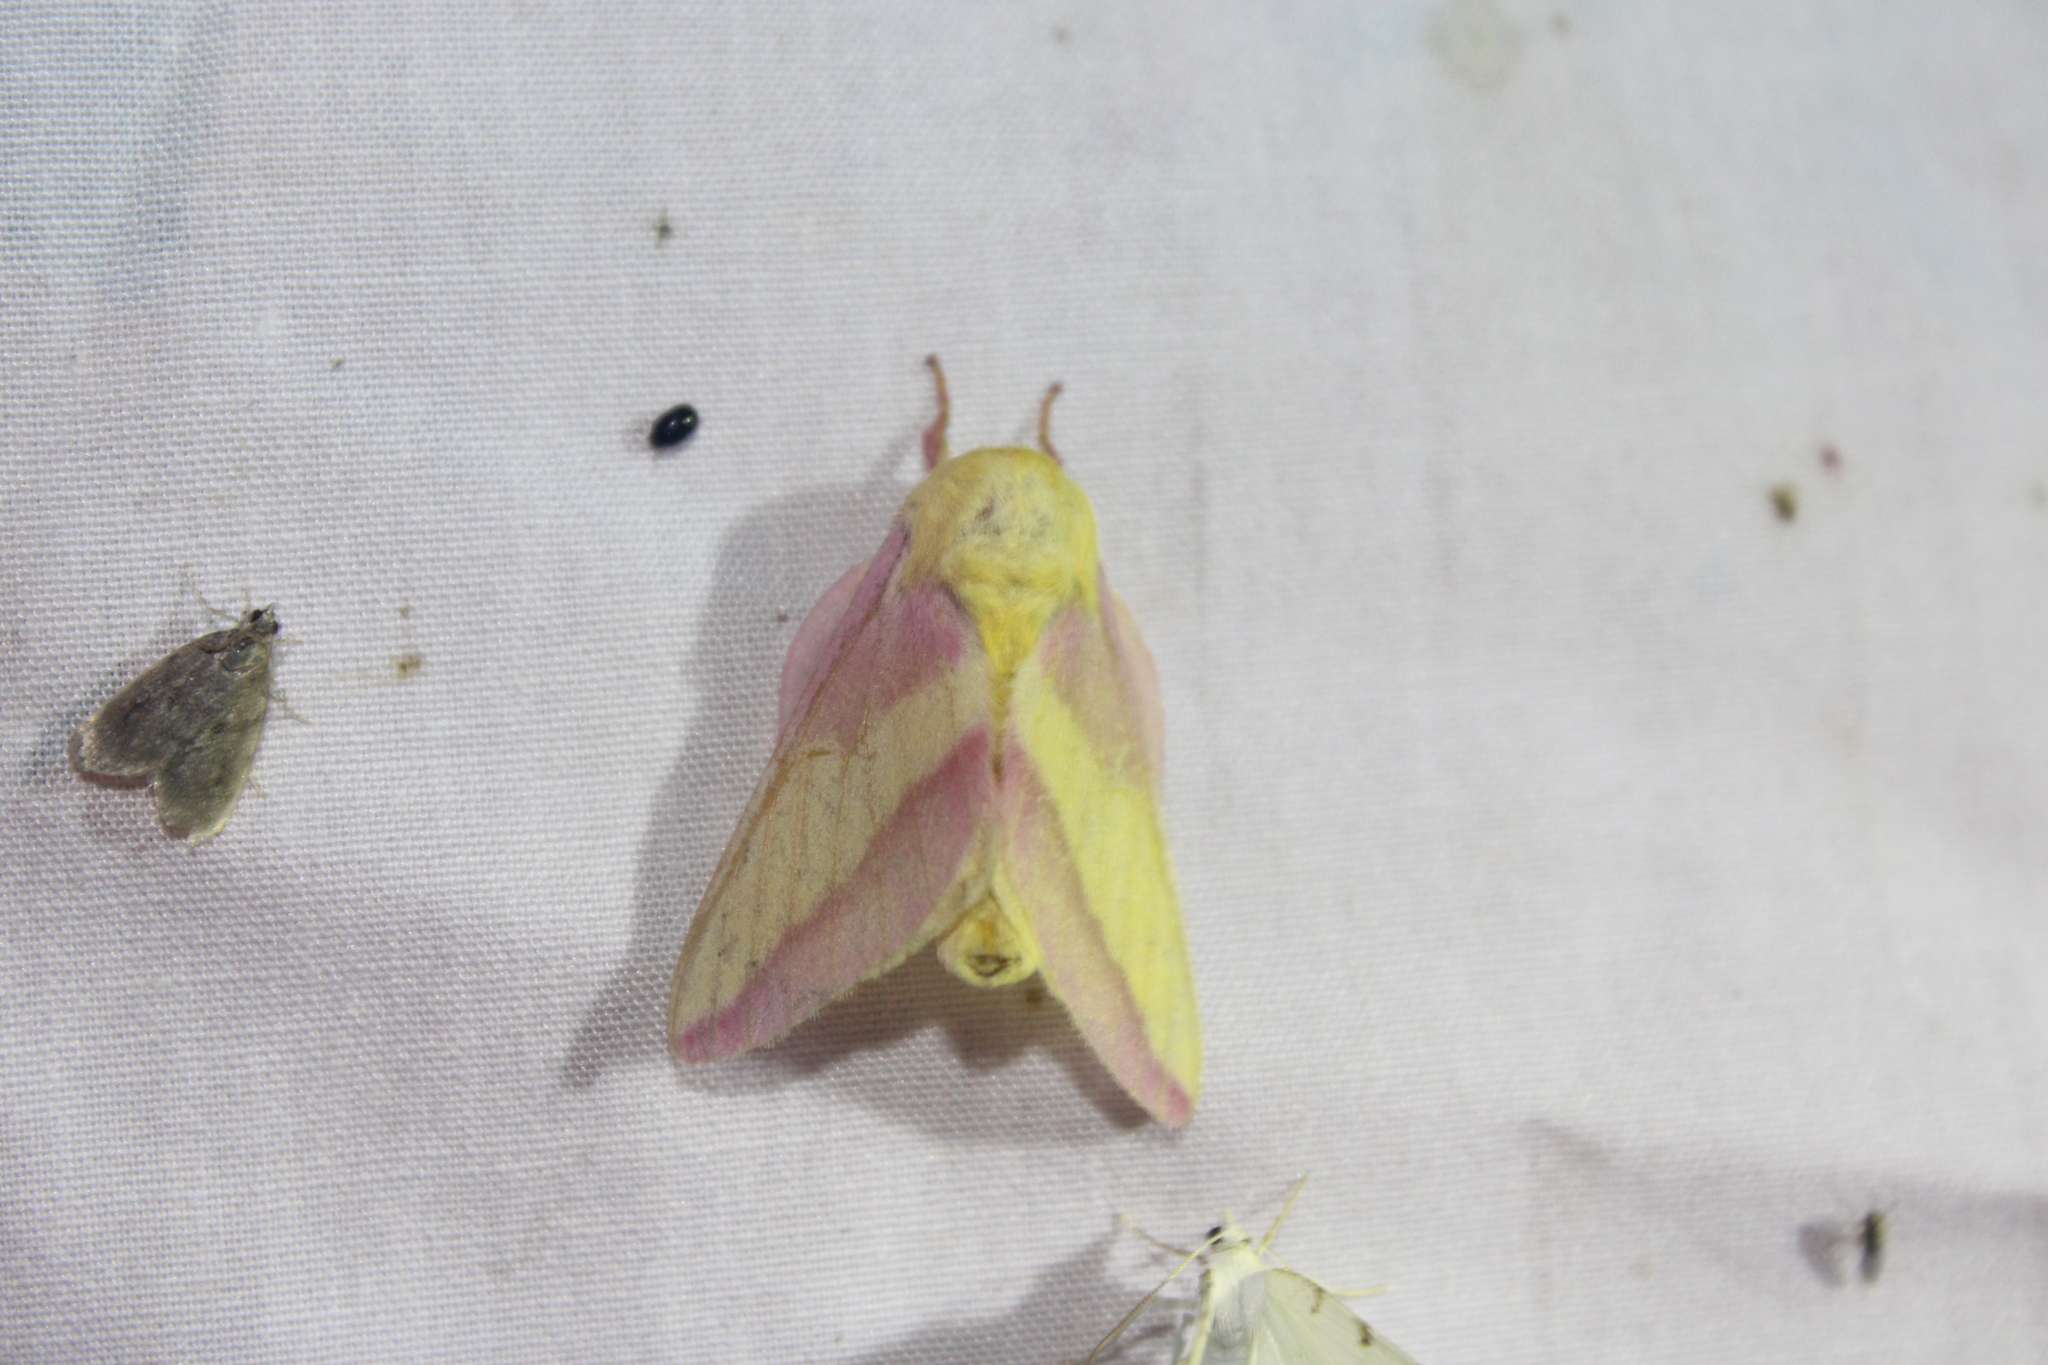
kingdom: Animalia
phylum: Arthropoda
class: Insecta
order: Lepidoptera
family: Saturniidae
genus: Dryocampa
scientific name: Dryocampa rubicunda
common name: Rosy maple moth
